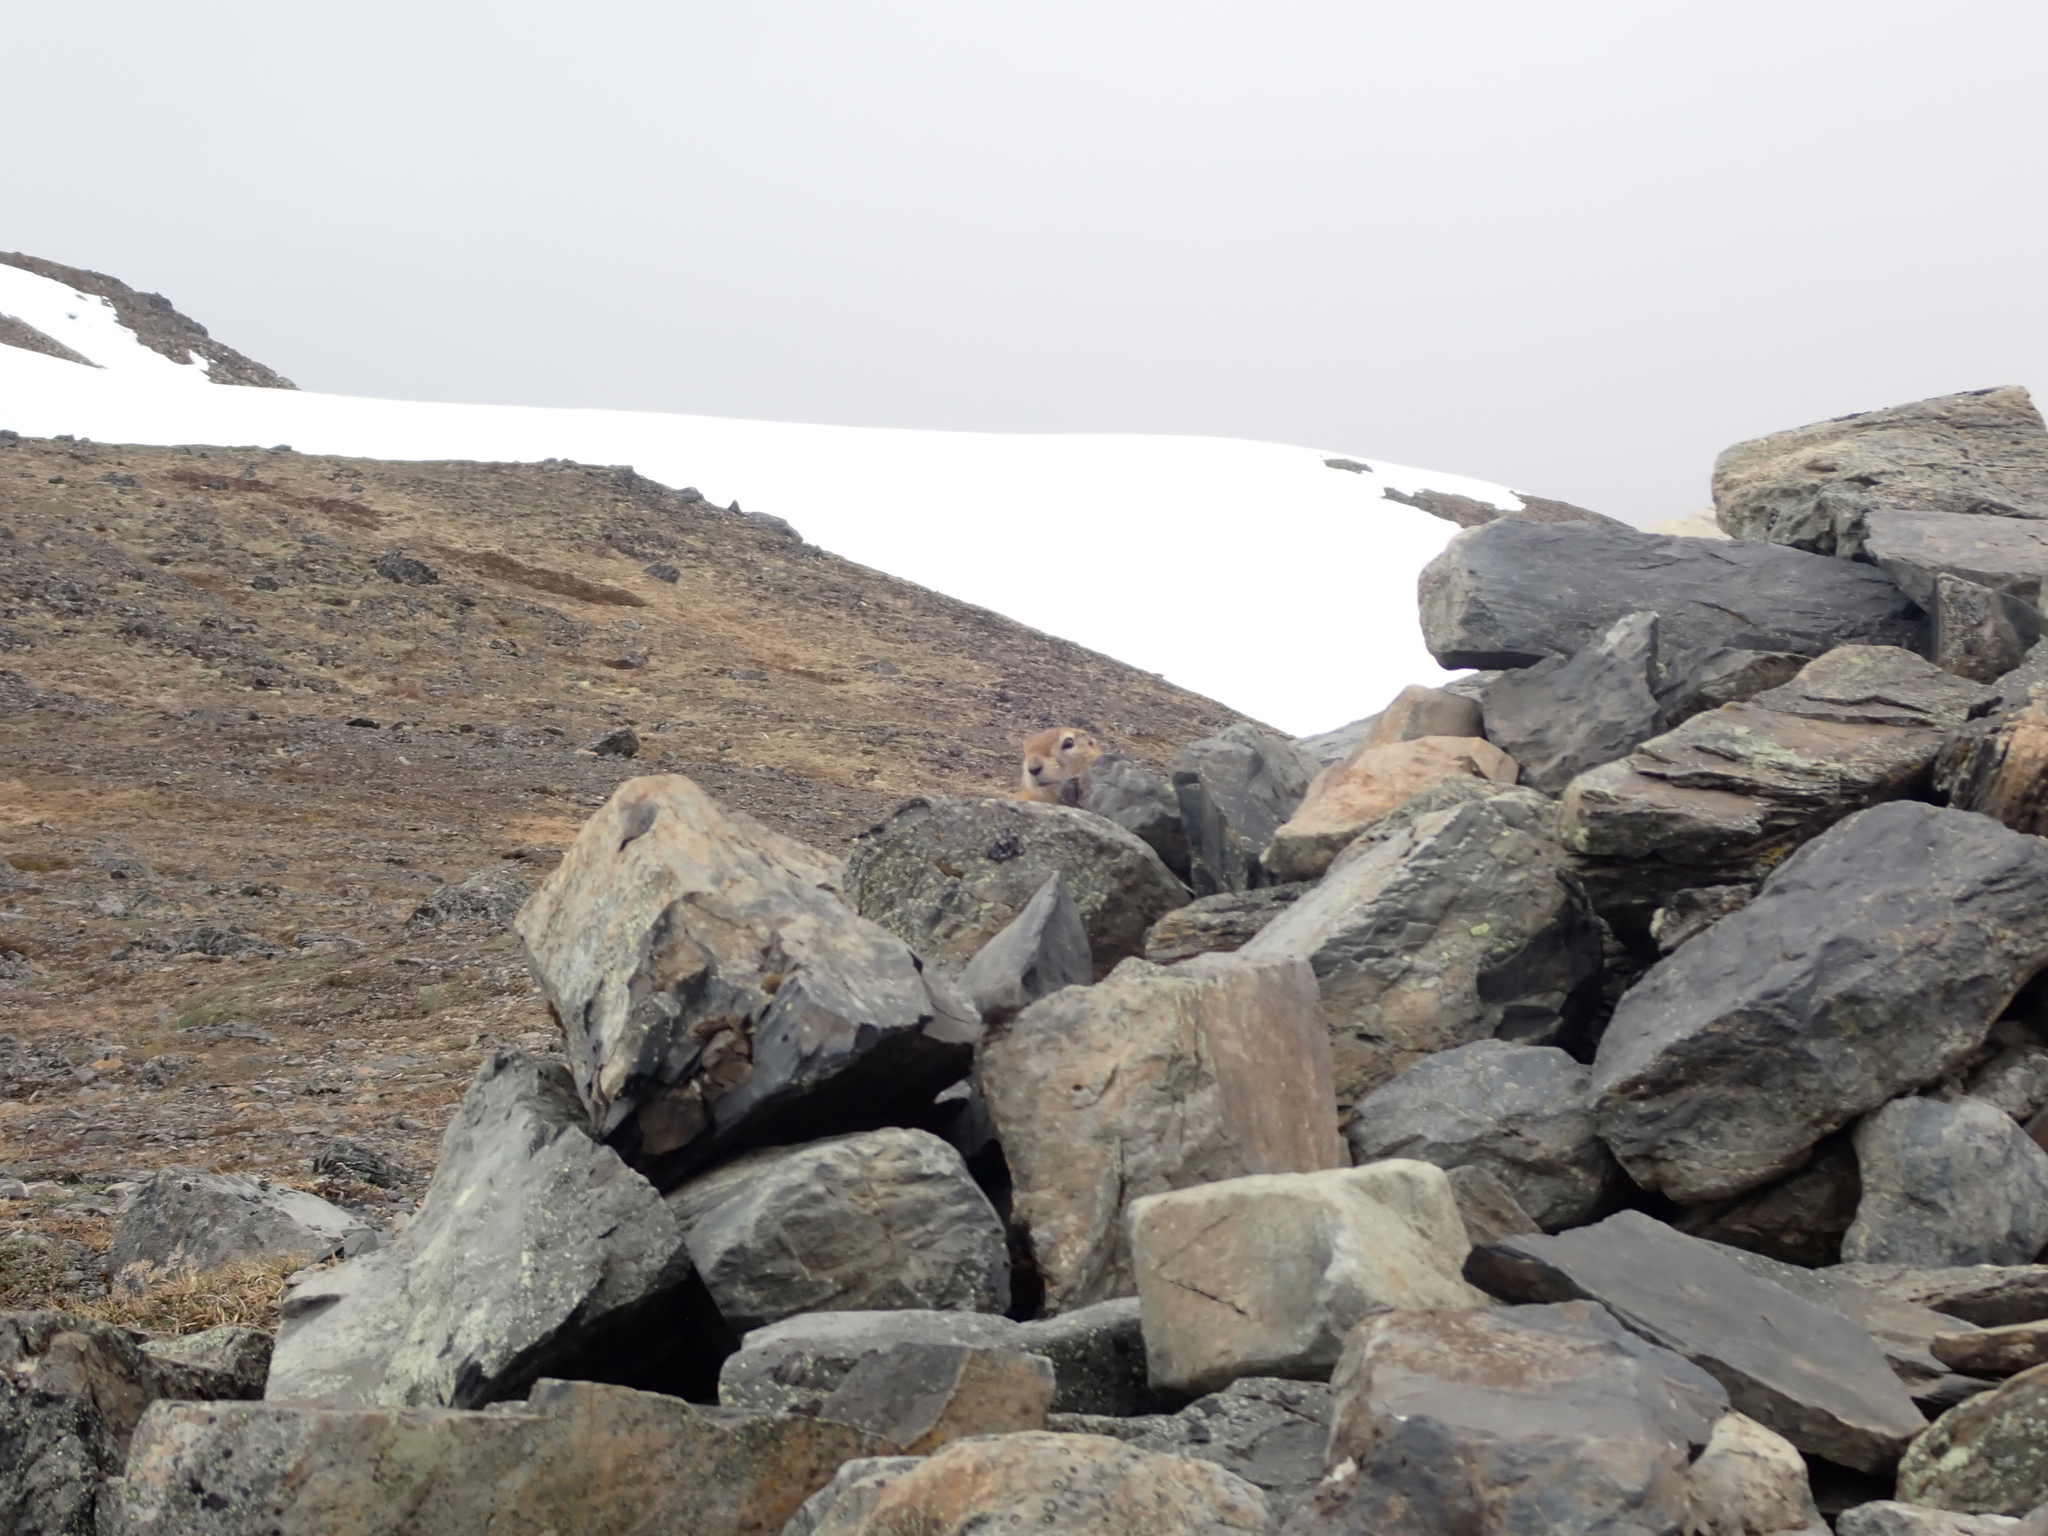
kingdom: Animalia
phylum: Chordata
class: Mammalia
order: Rodentia
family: Sciuridae
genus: Urocitellus
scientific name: Urocitellus parryii
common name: Arctic ground squirrel
